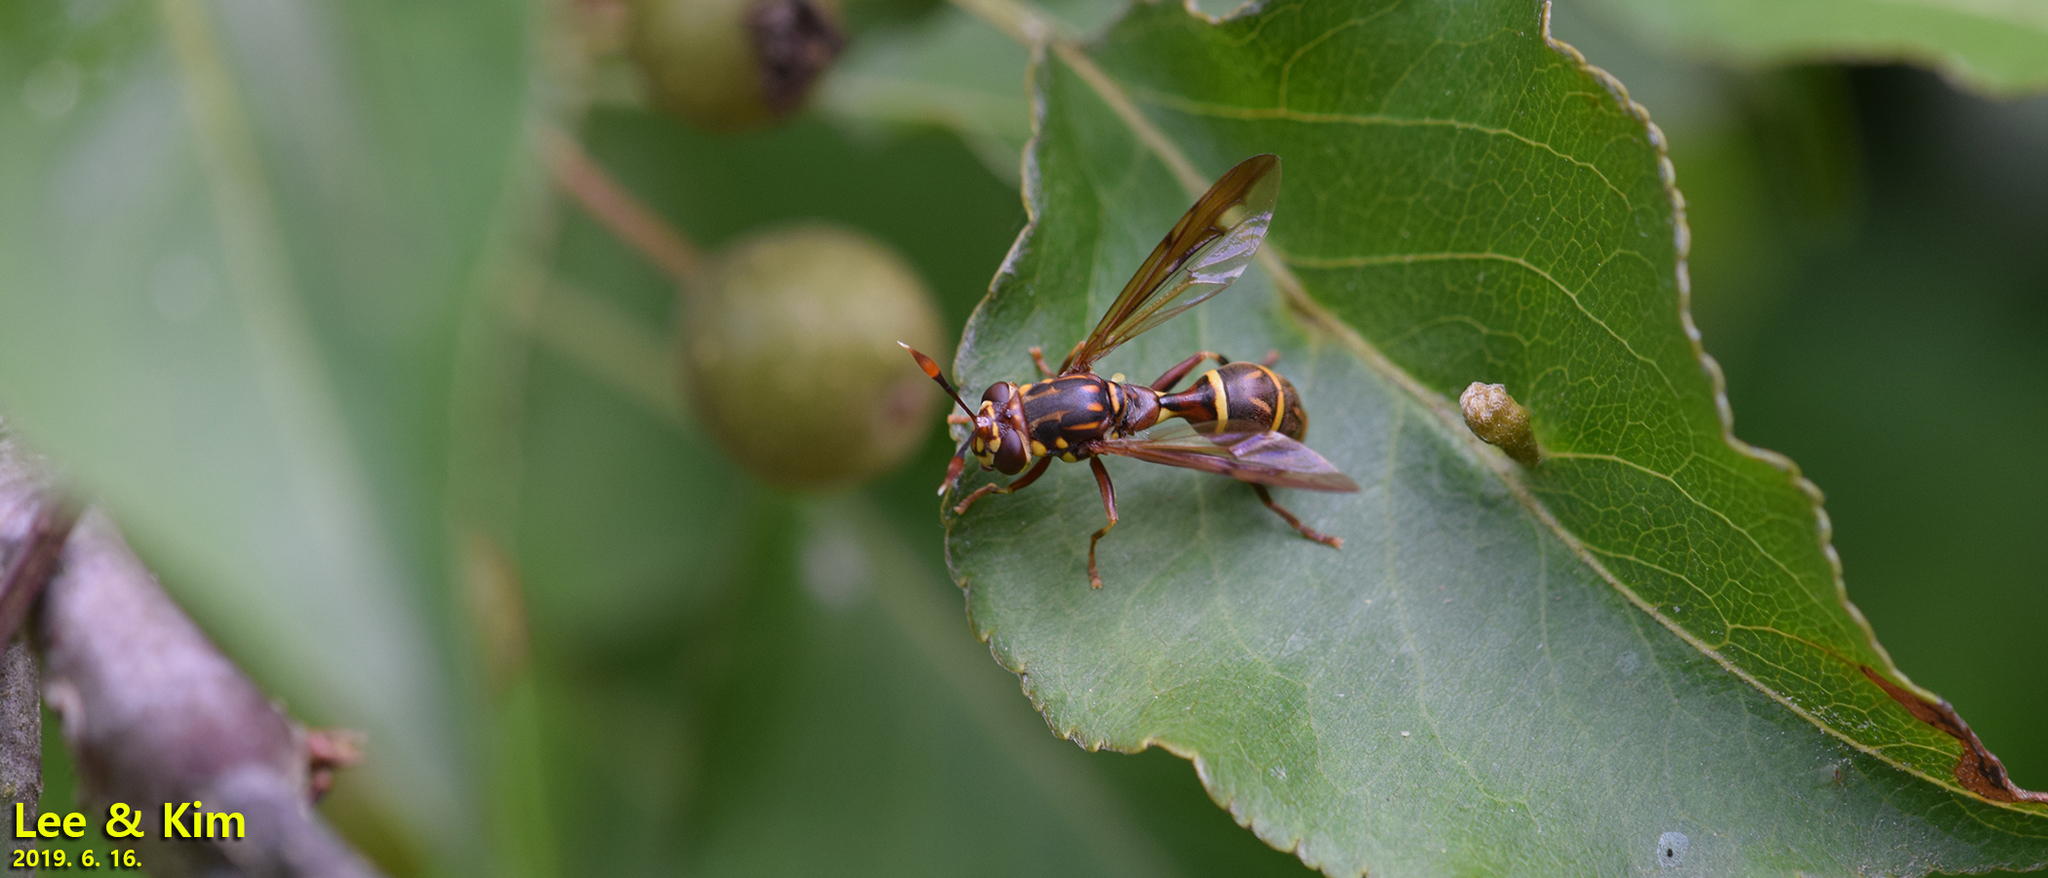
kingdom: Animalia
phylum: Arthropoda
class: Insecta
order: Diptera
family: Syrphidae
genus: Sphiximorpha
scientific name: Sphiximorpha rachmaninovi
